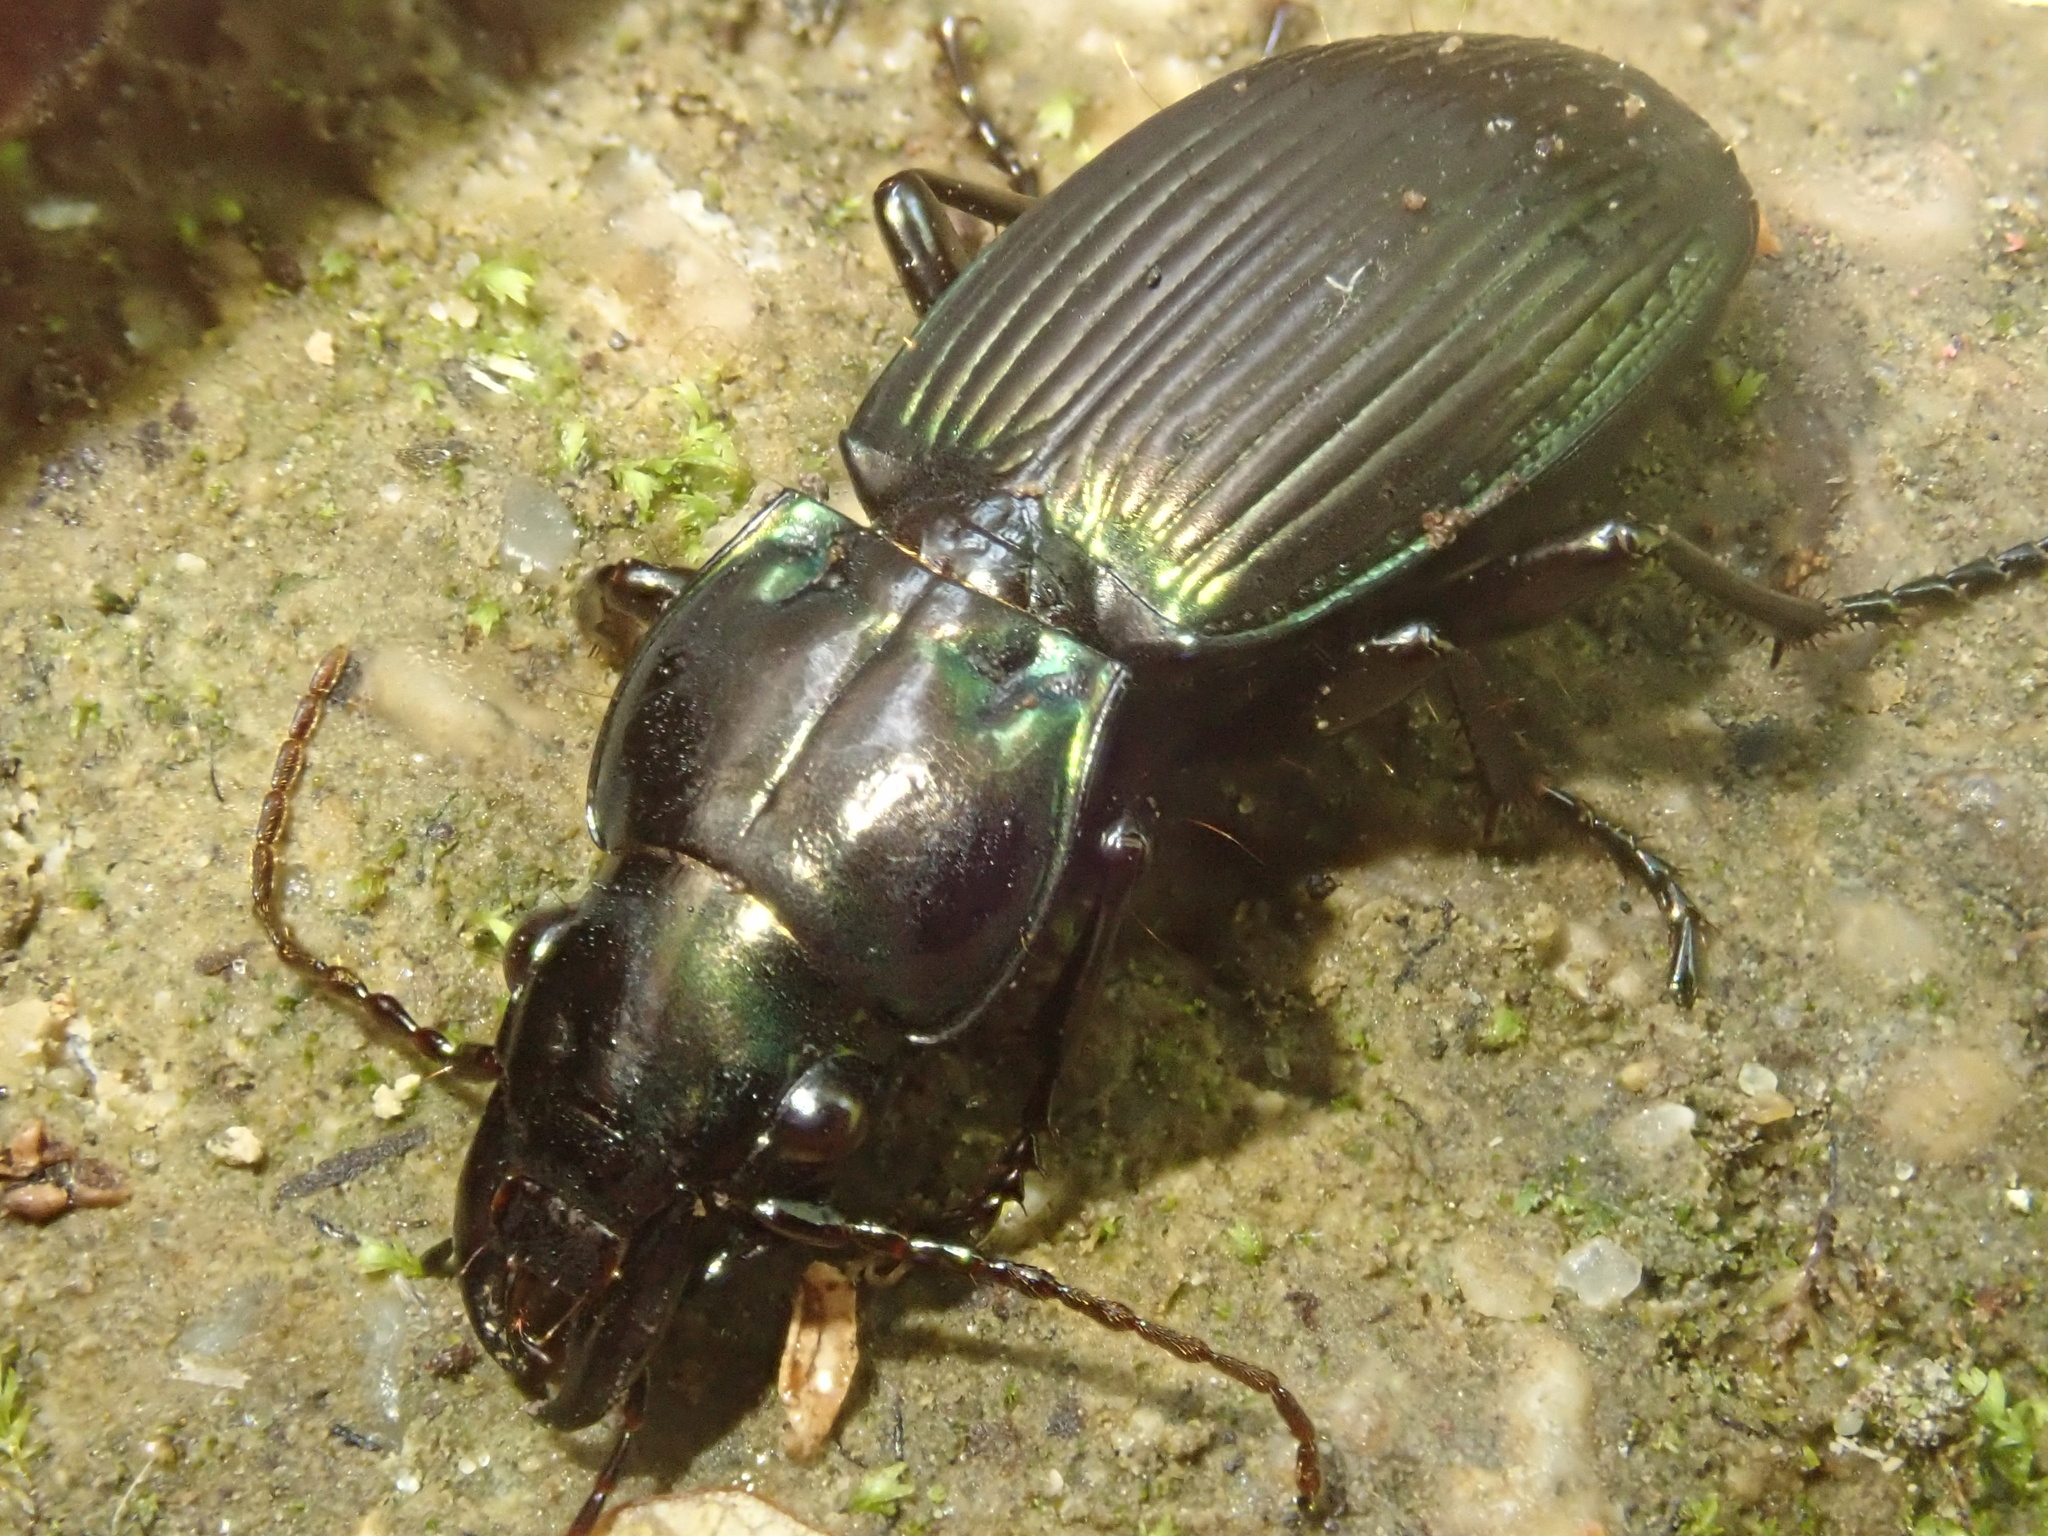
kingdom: Animalia
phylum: Arthropoda
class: Insecta
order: Coleoptera
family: Carabidae
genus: Megadromus
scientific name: Megadromus capito
